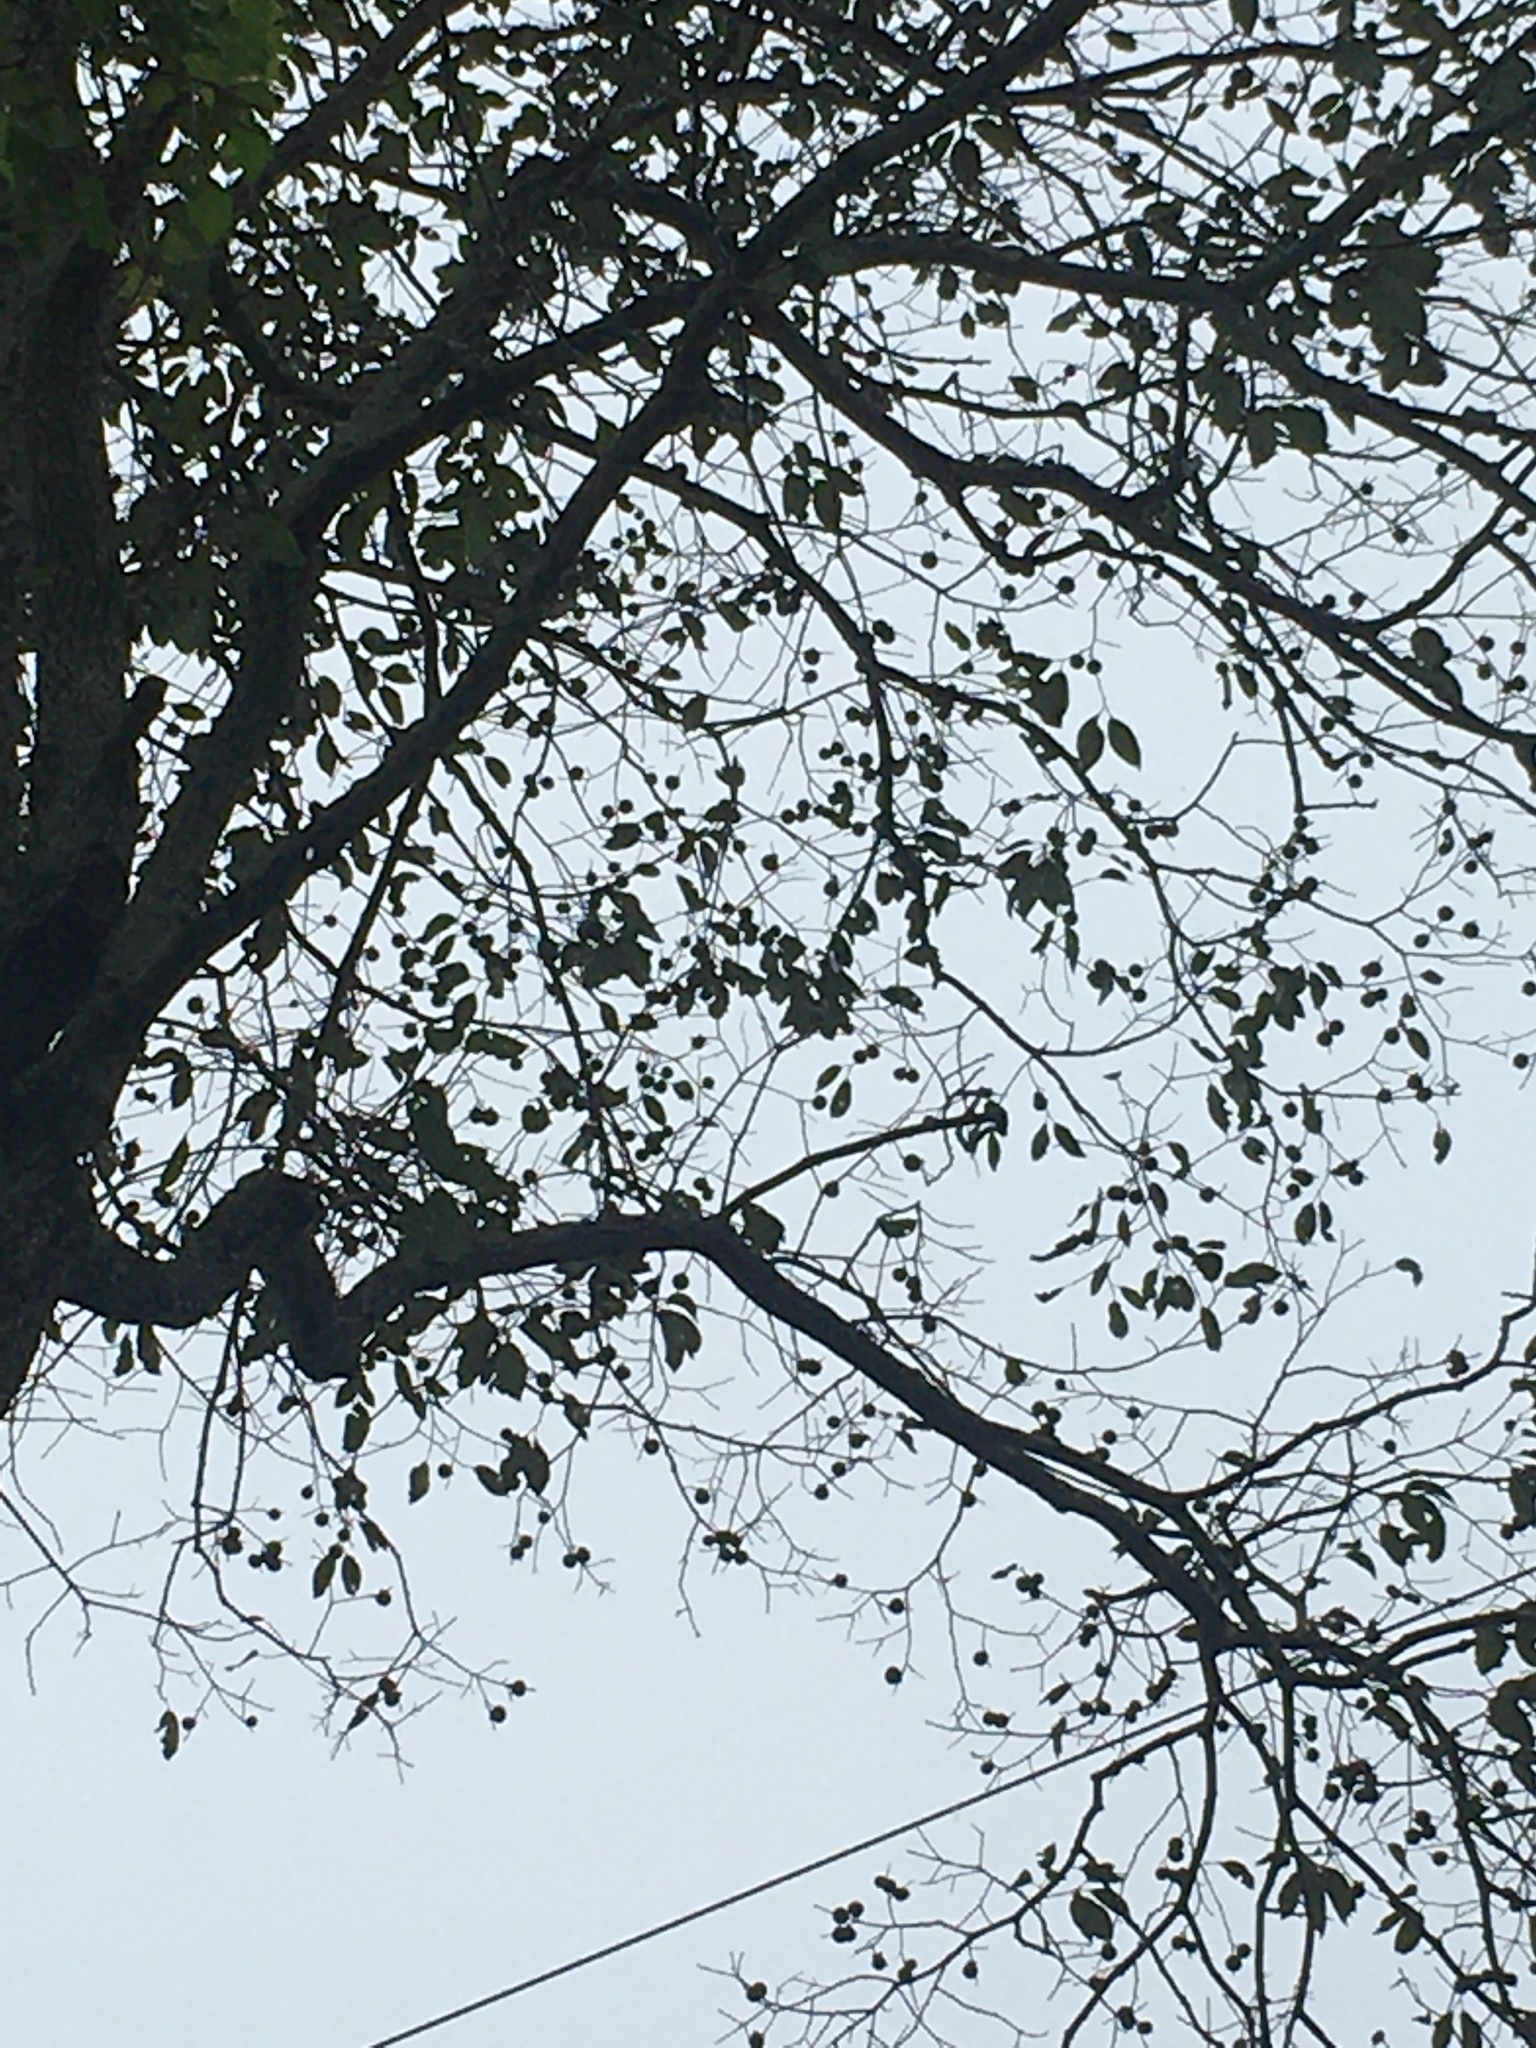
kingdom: Plantae
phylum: Tracheophyta
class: Magnoliopsida
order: Ericales
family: Ebenaceae
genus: Diospyros
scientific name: Diospyros virginiana
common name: Persimmon
